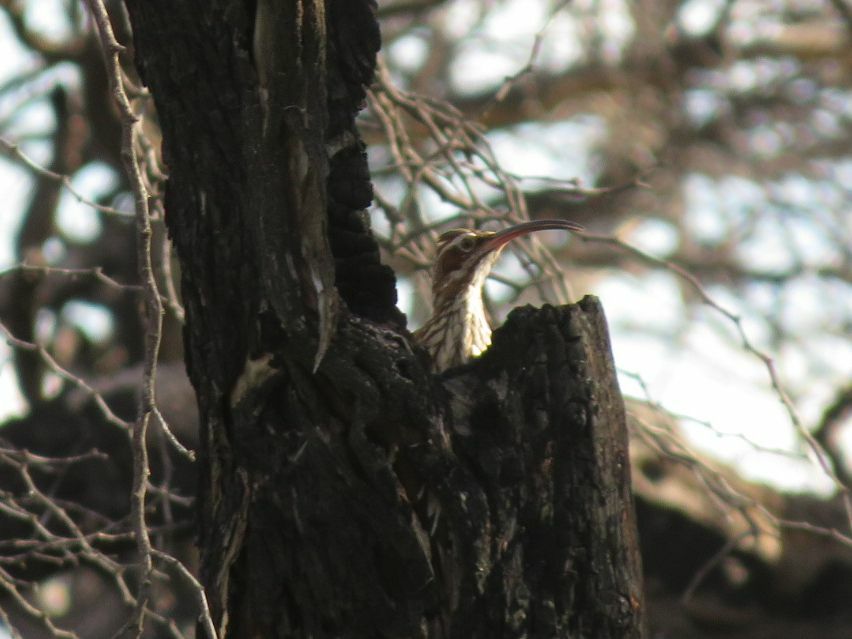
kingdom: Animalia
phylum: Chordata
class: Aves
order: Passeriformes
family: Furnariidae
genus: Drymornis
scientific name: Drymornis bridgesii
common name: Scimitar-billed woodcreeper
